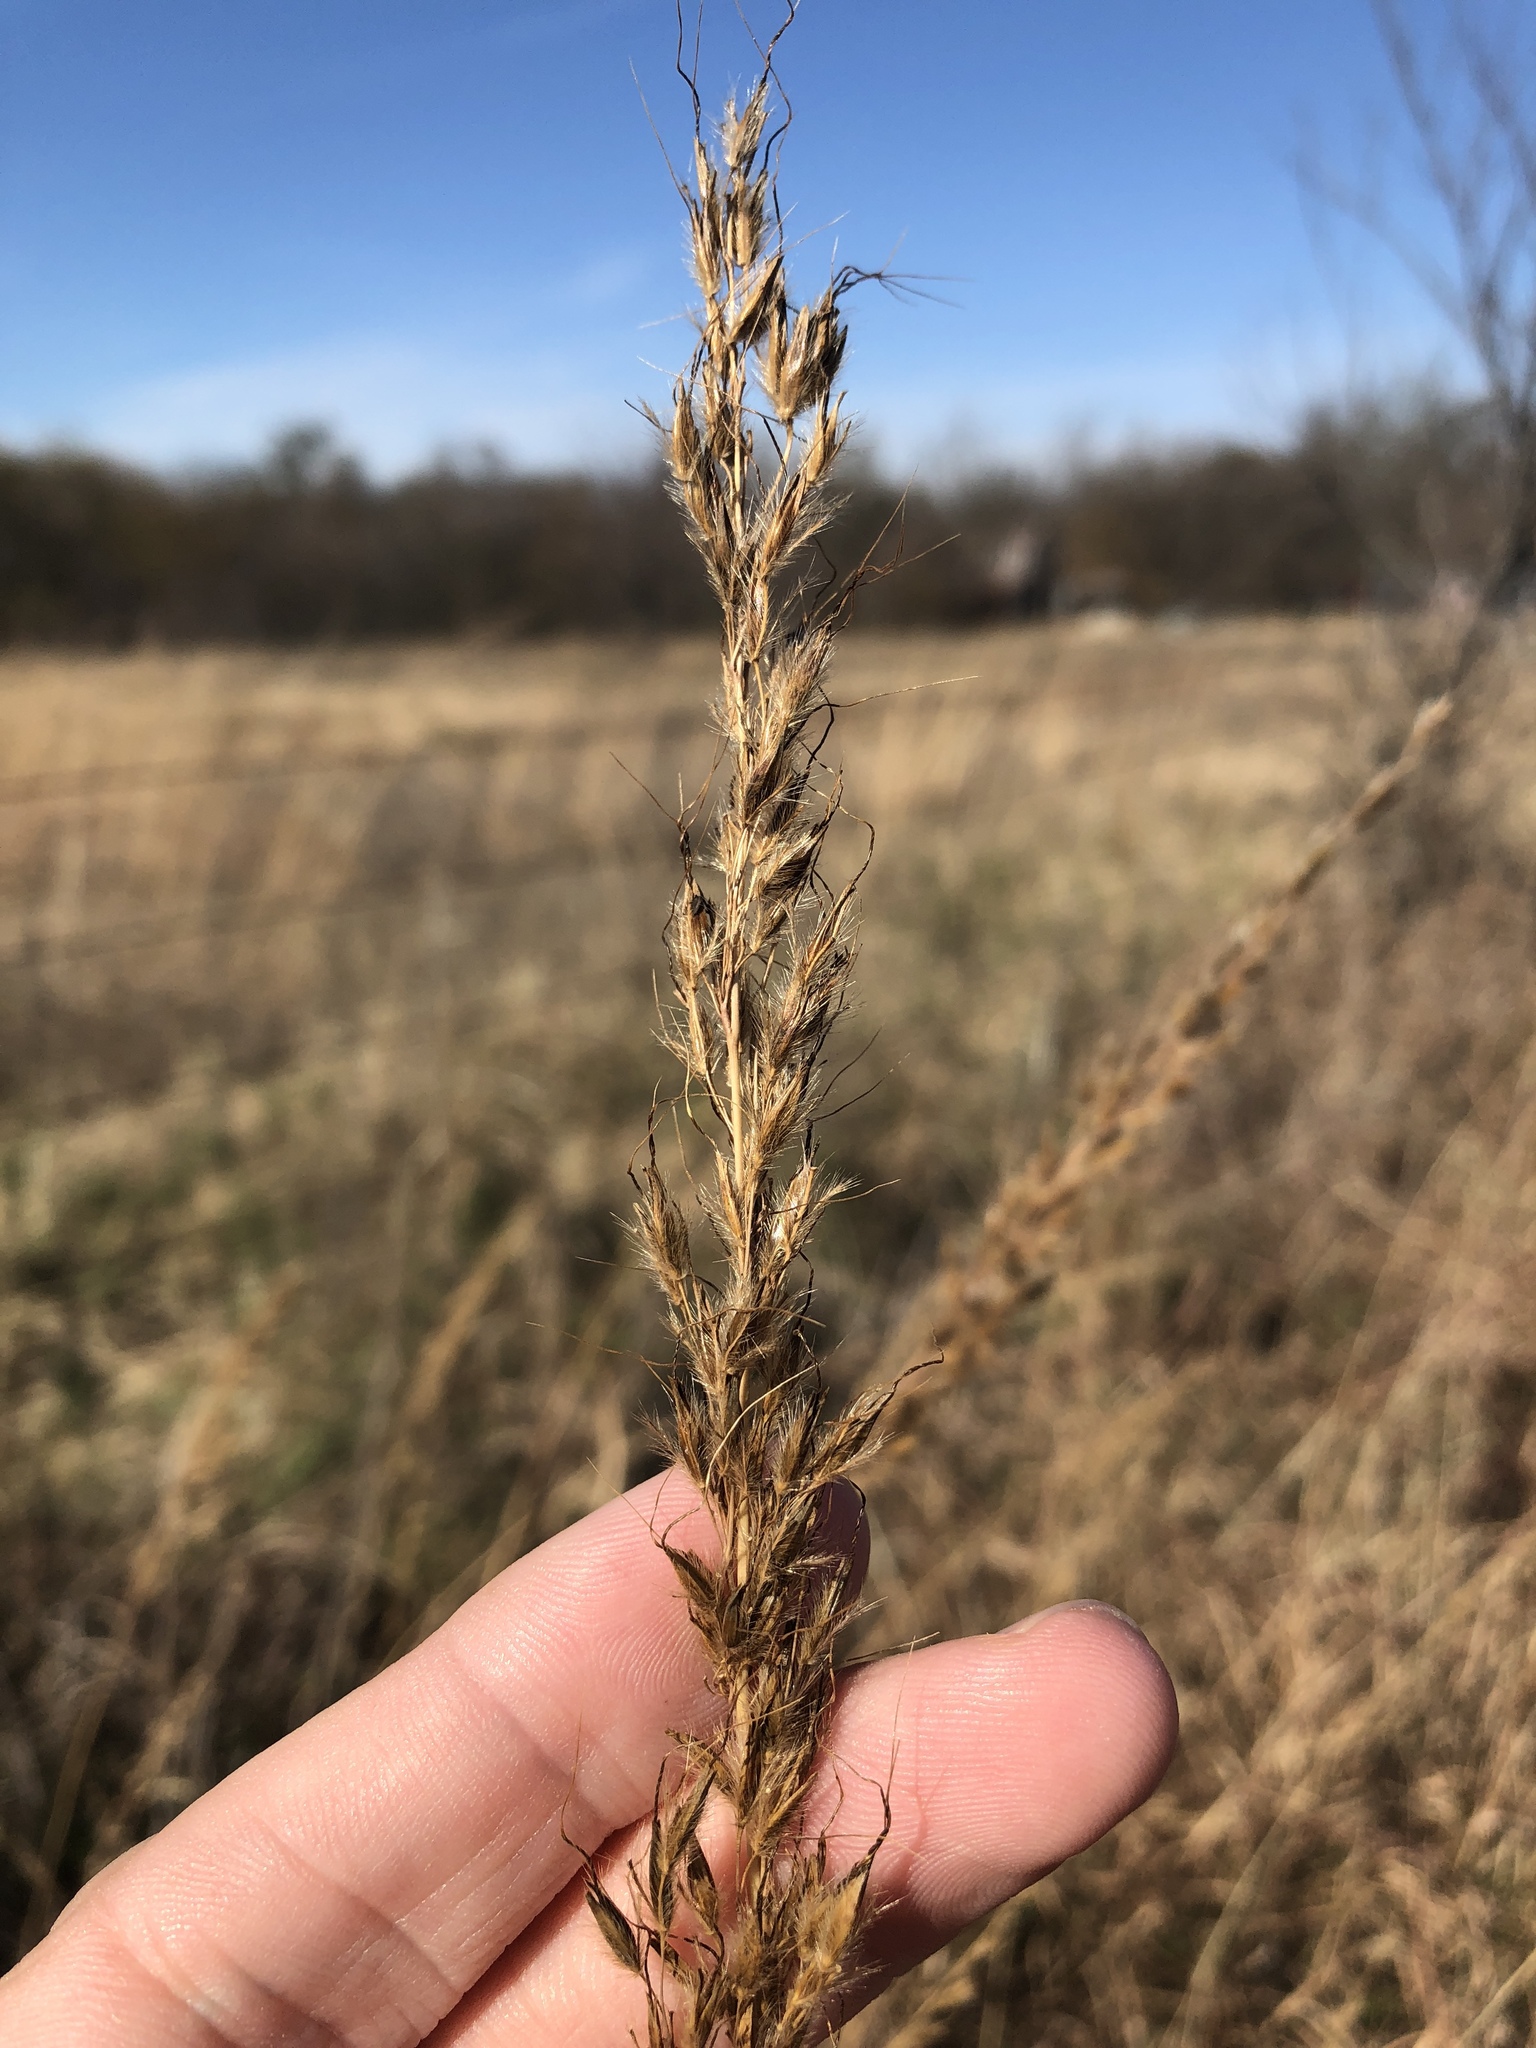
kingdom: Plantae
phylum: Tracheophyta
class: Liliopsida
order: Poales
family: Poaceae
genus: Sorghastrum
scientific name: Sorghastrum nutans
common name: Indian grass
